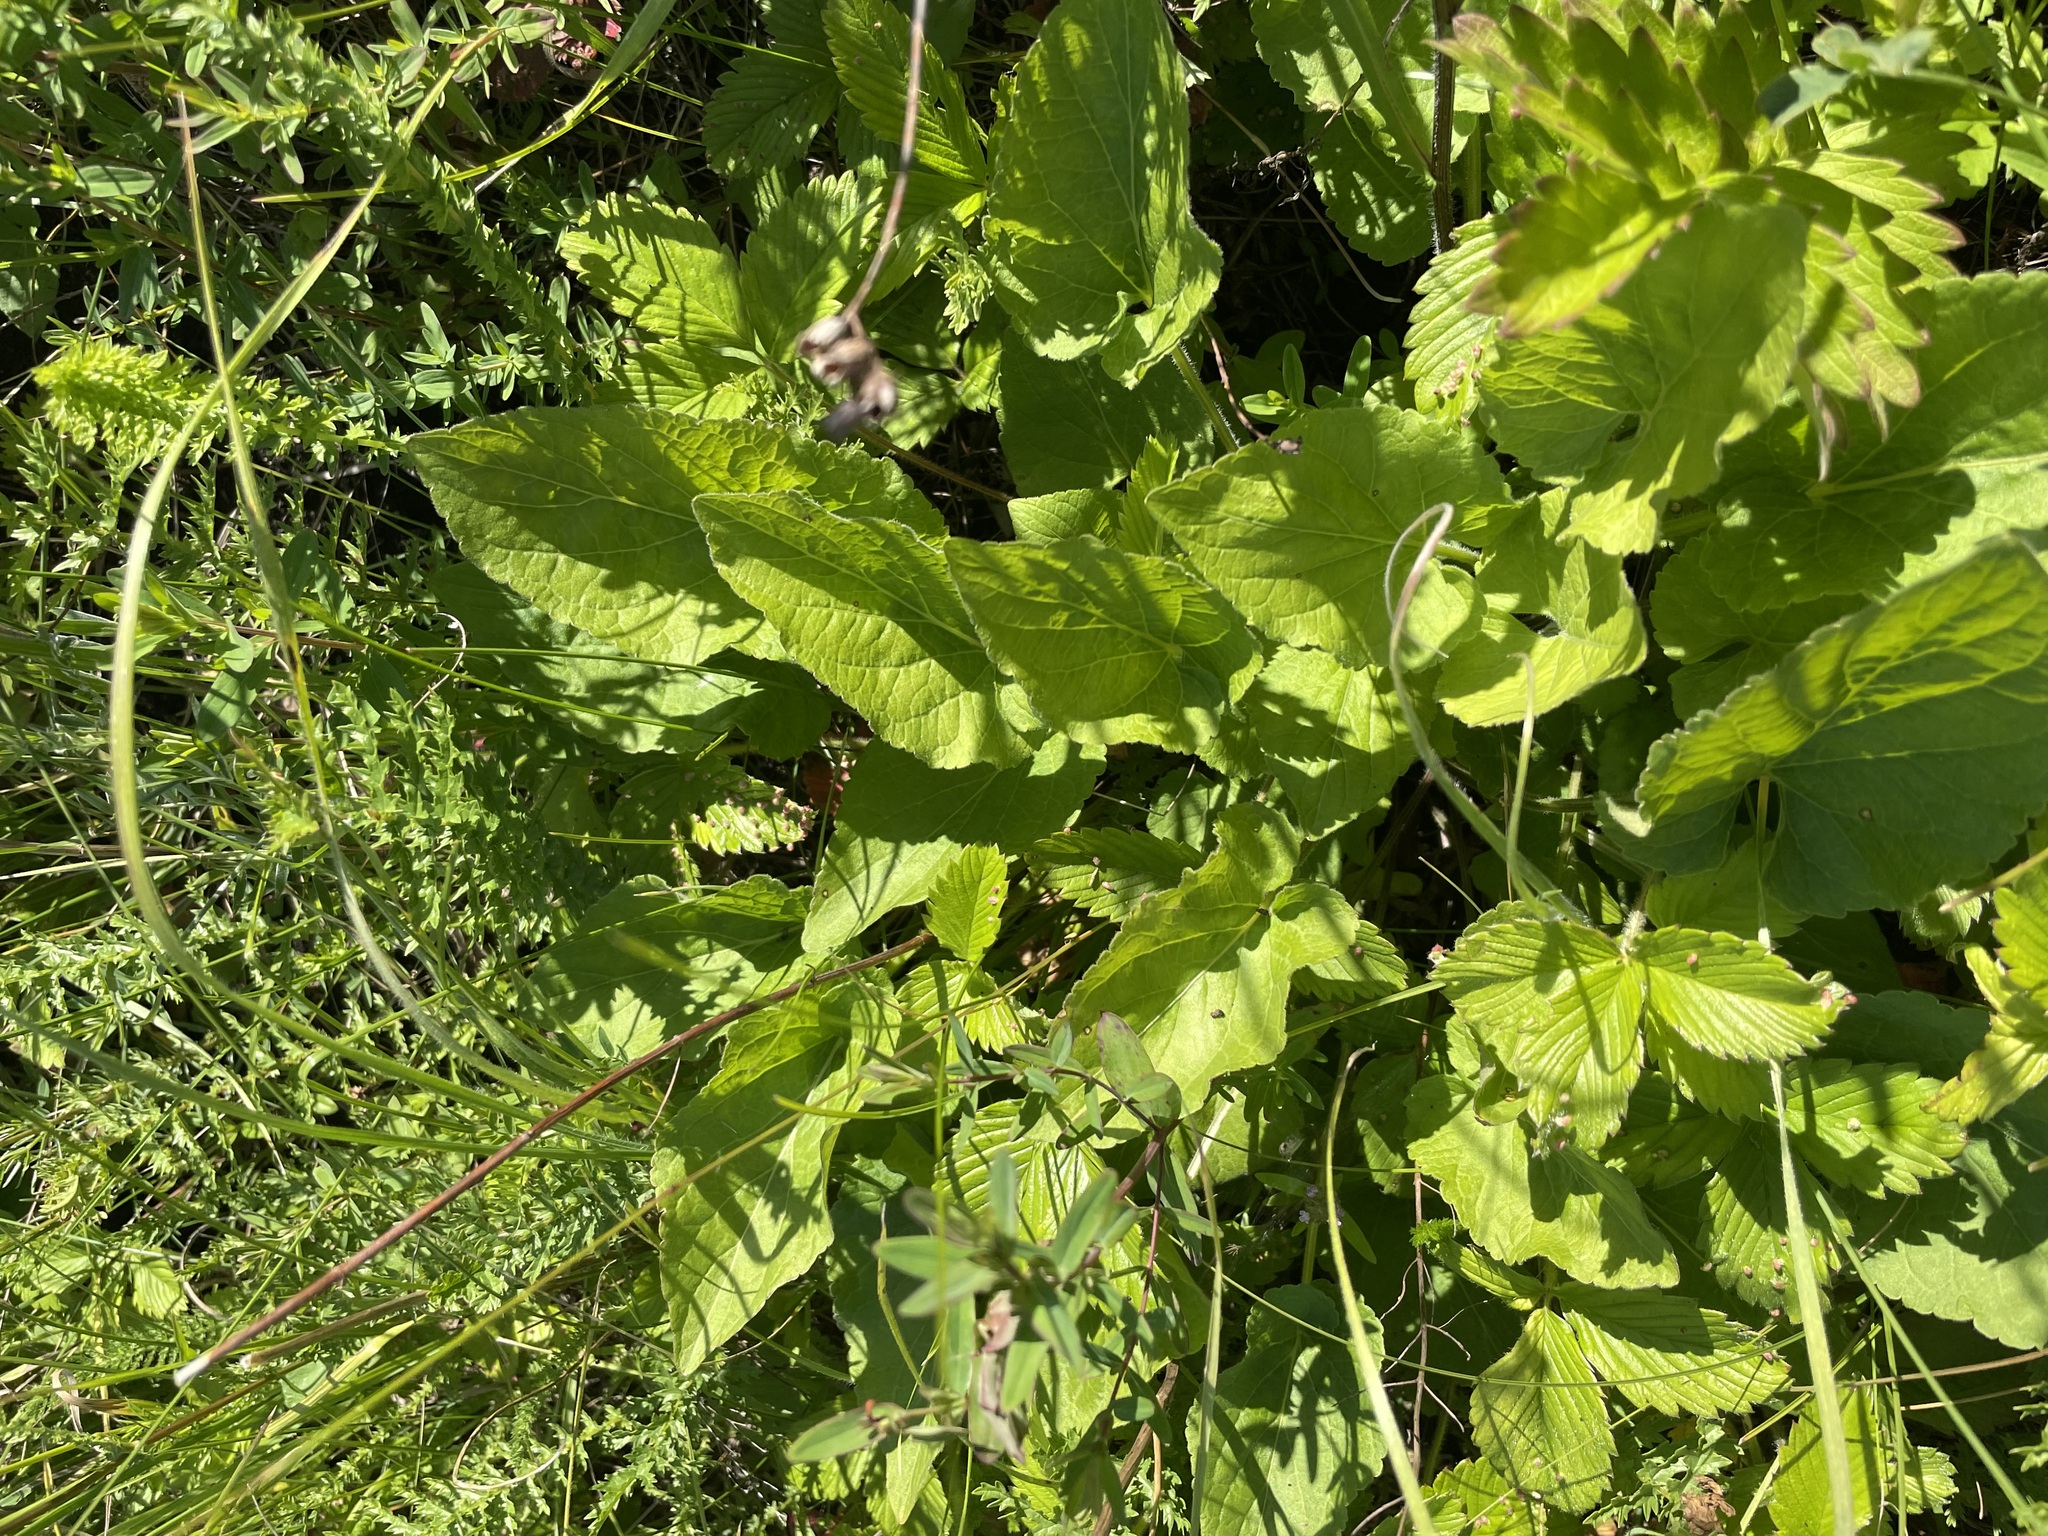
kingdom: Plantae
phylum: Tracheophyta
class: Magnoliopsida
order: Malpighiales
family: Violaceae
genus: Viola
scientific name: Viola hirta
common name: Hairy violet
